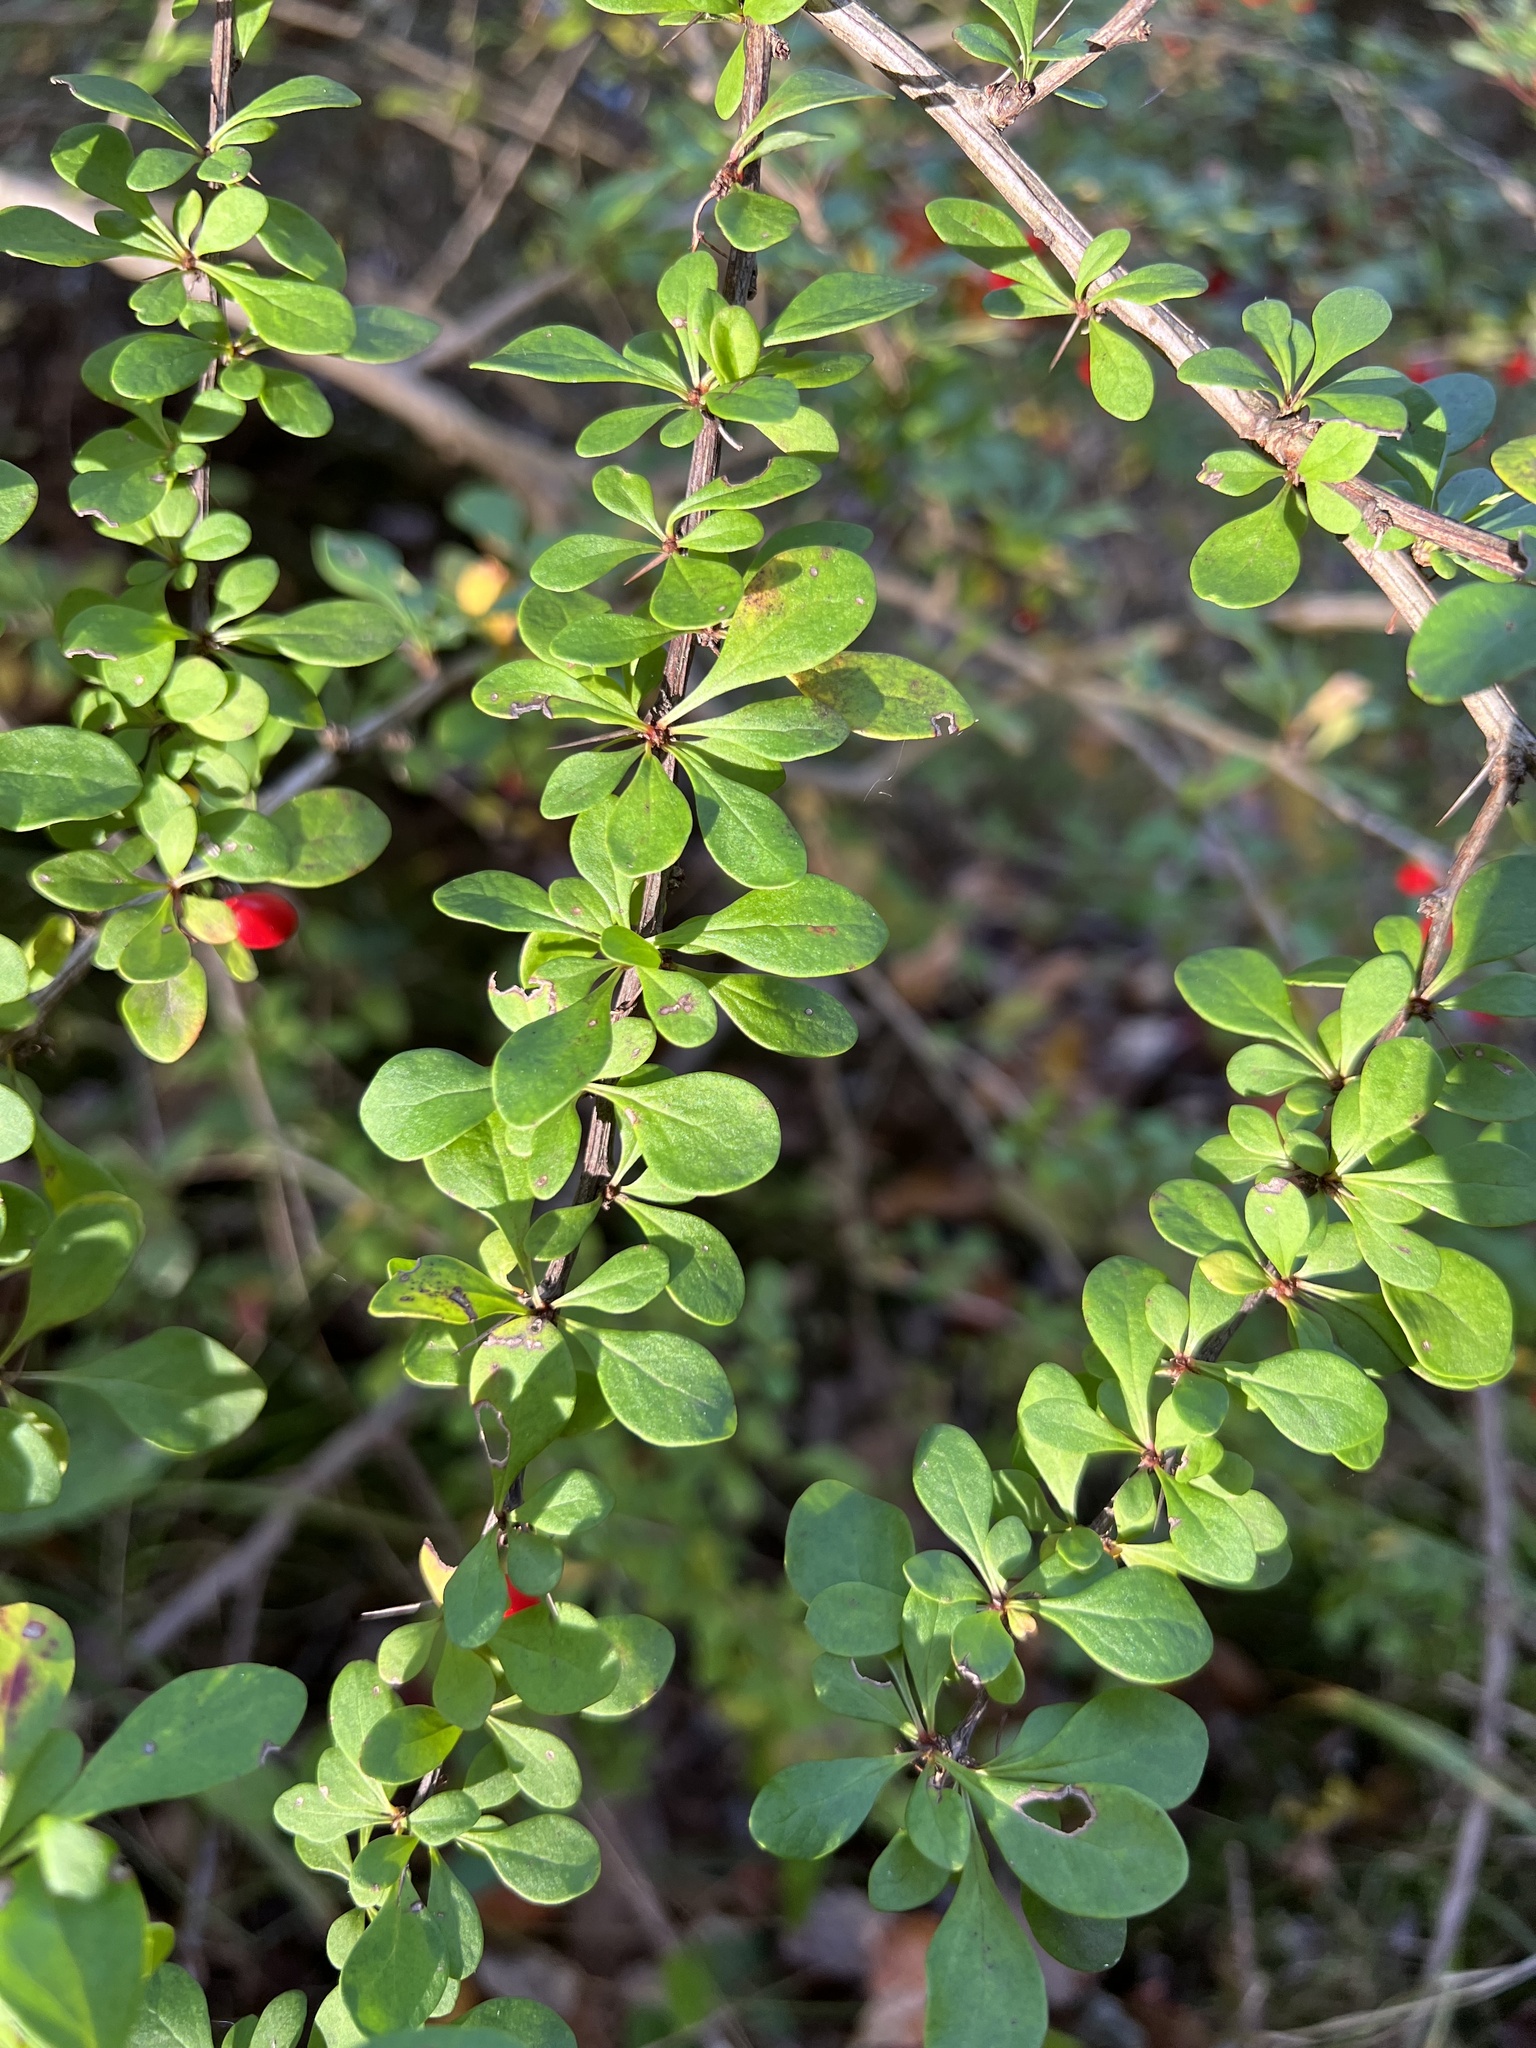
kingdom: Plantae
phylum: Tracheophyta
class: Magnoliopsida
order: Ranunculales
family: Berberidaceae
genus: Berberis
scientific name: Berberis thunbergii
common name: Japanese barberry
